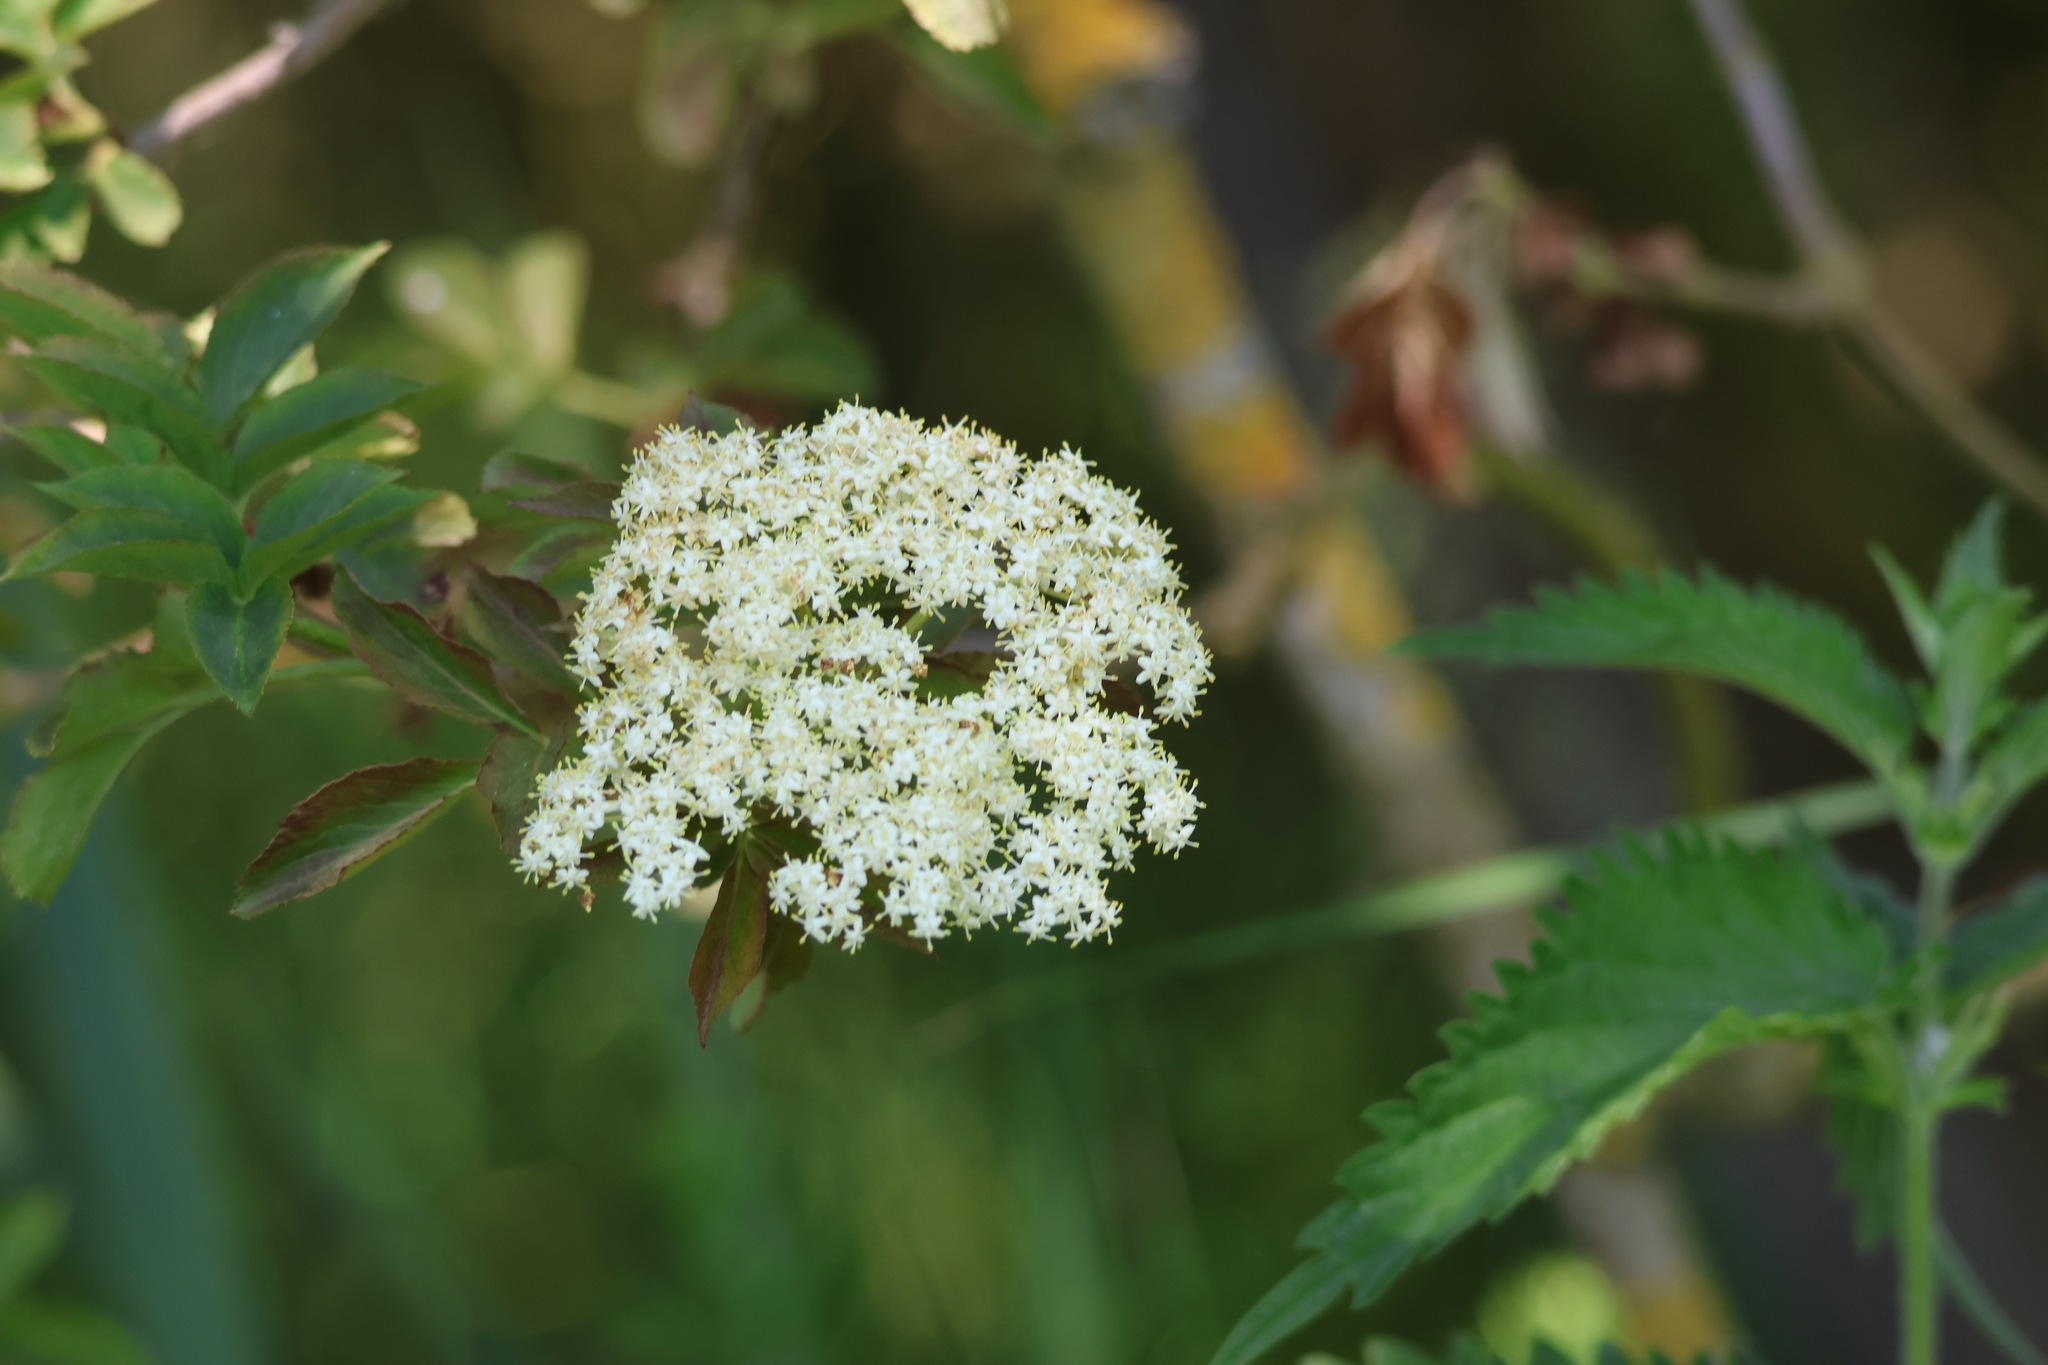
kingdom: Plantae
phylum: Tracheophyta
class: Magnoliopsida
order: Dipsacales
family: Viburnaceae
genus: Sambucus
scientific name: Sambucus nigra
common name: Elder
